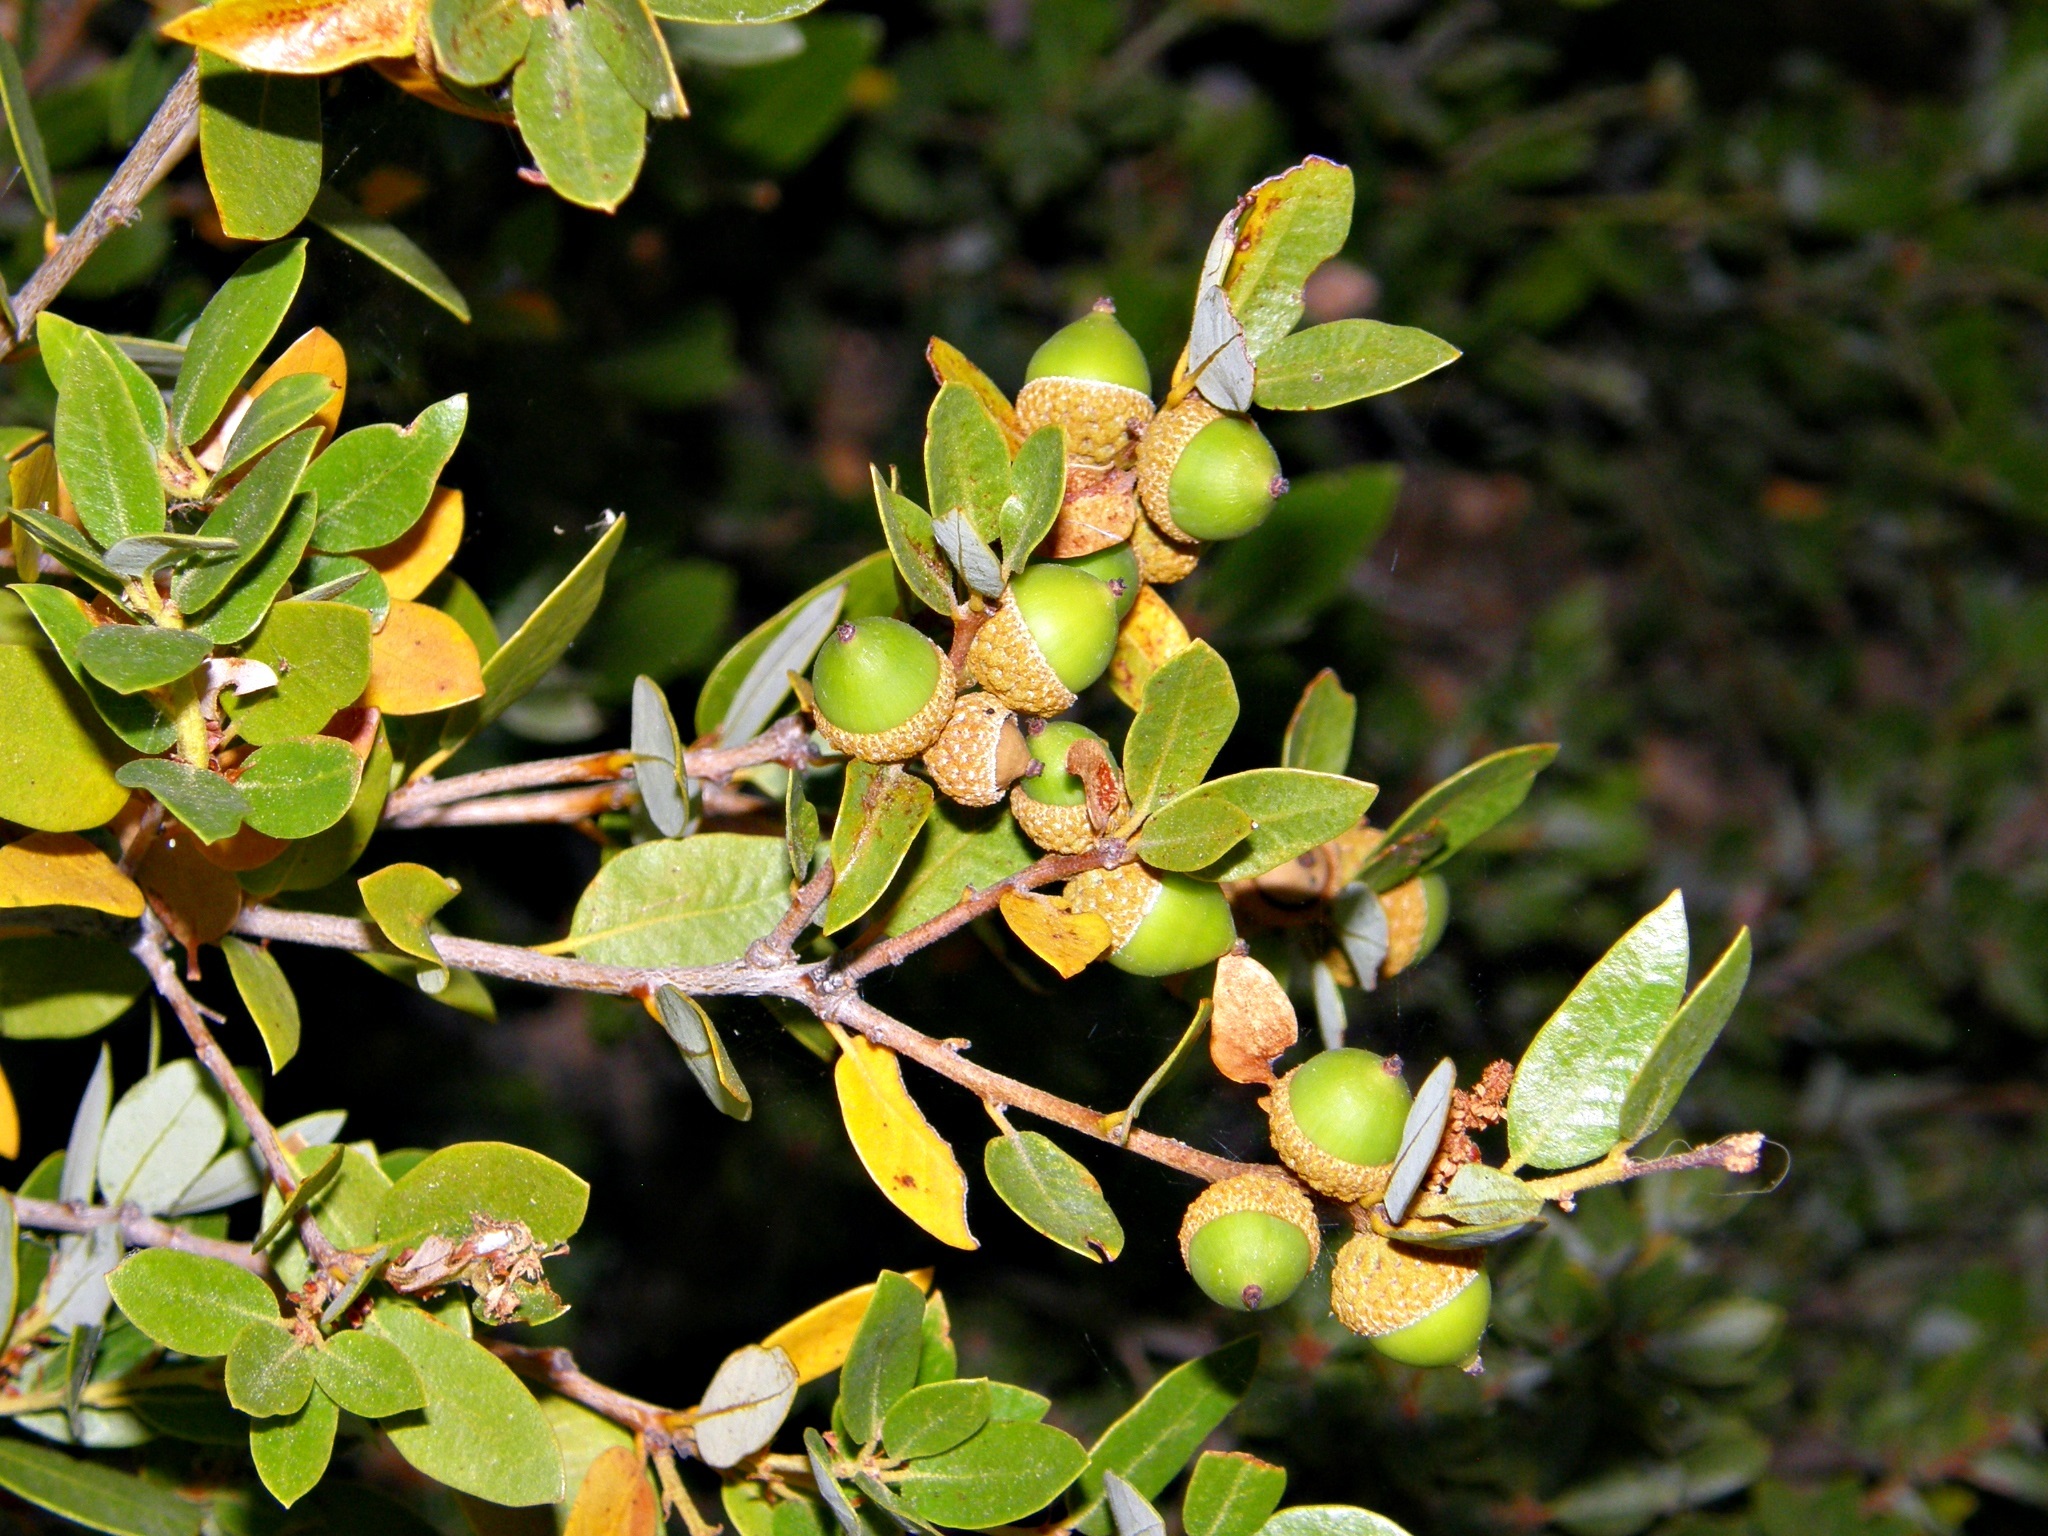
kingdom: Plantae
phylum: Tracheophyta
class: Magnoliopsida
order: Fagales
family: Fagaceae
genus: Quercus
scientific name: Quercus vacciniifolia
